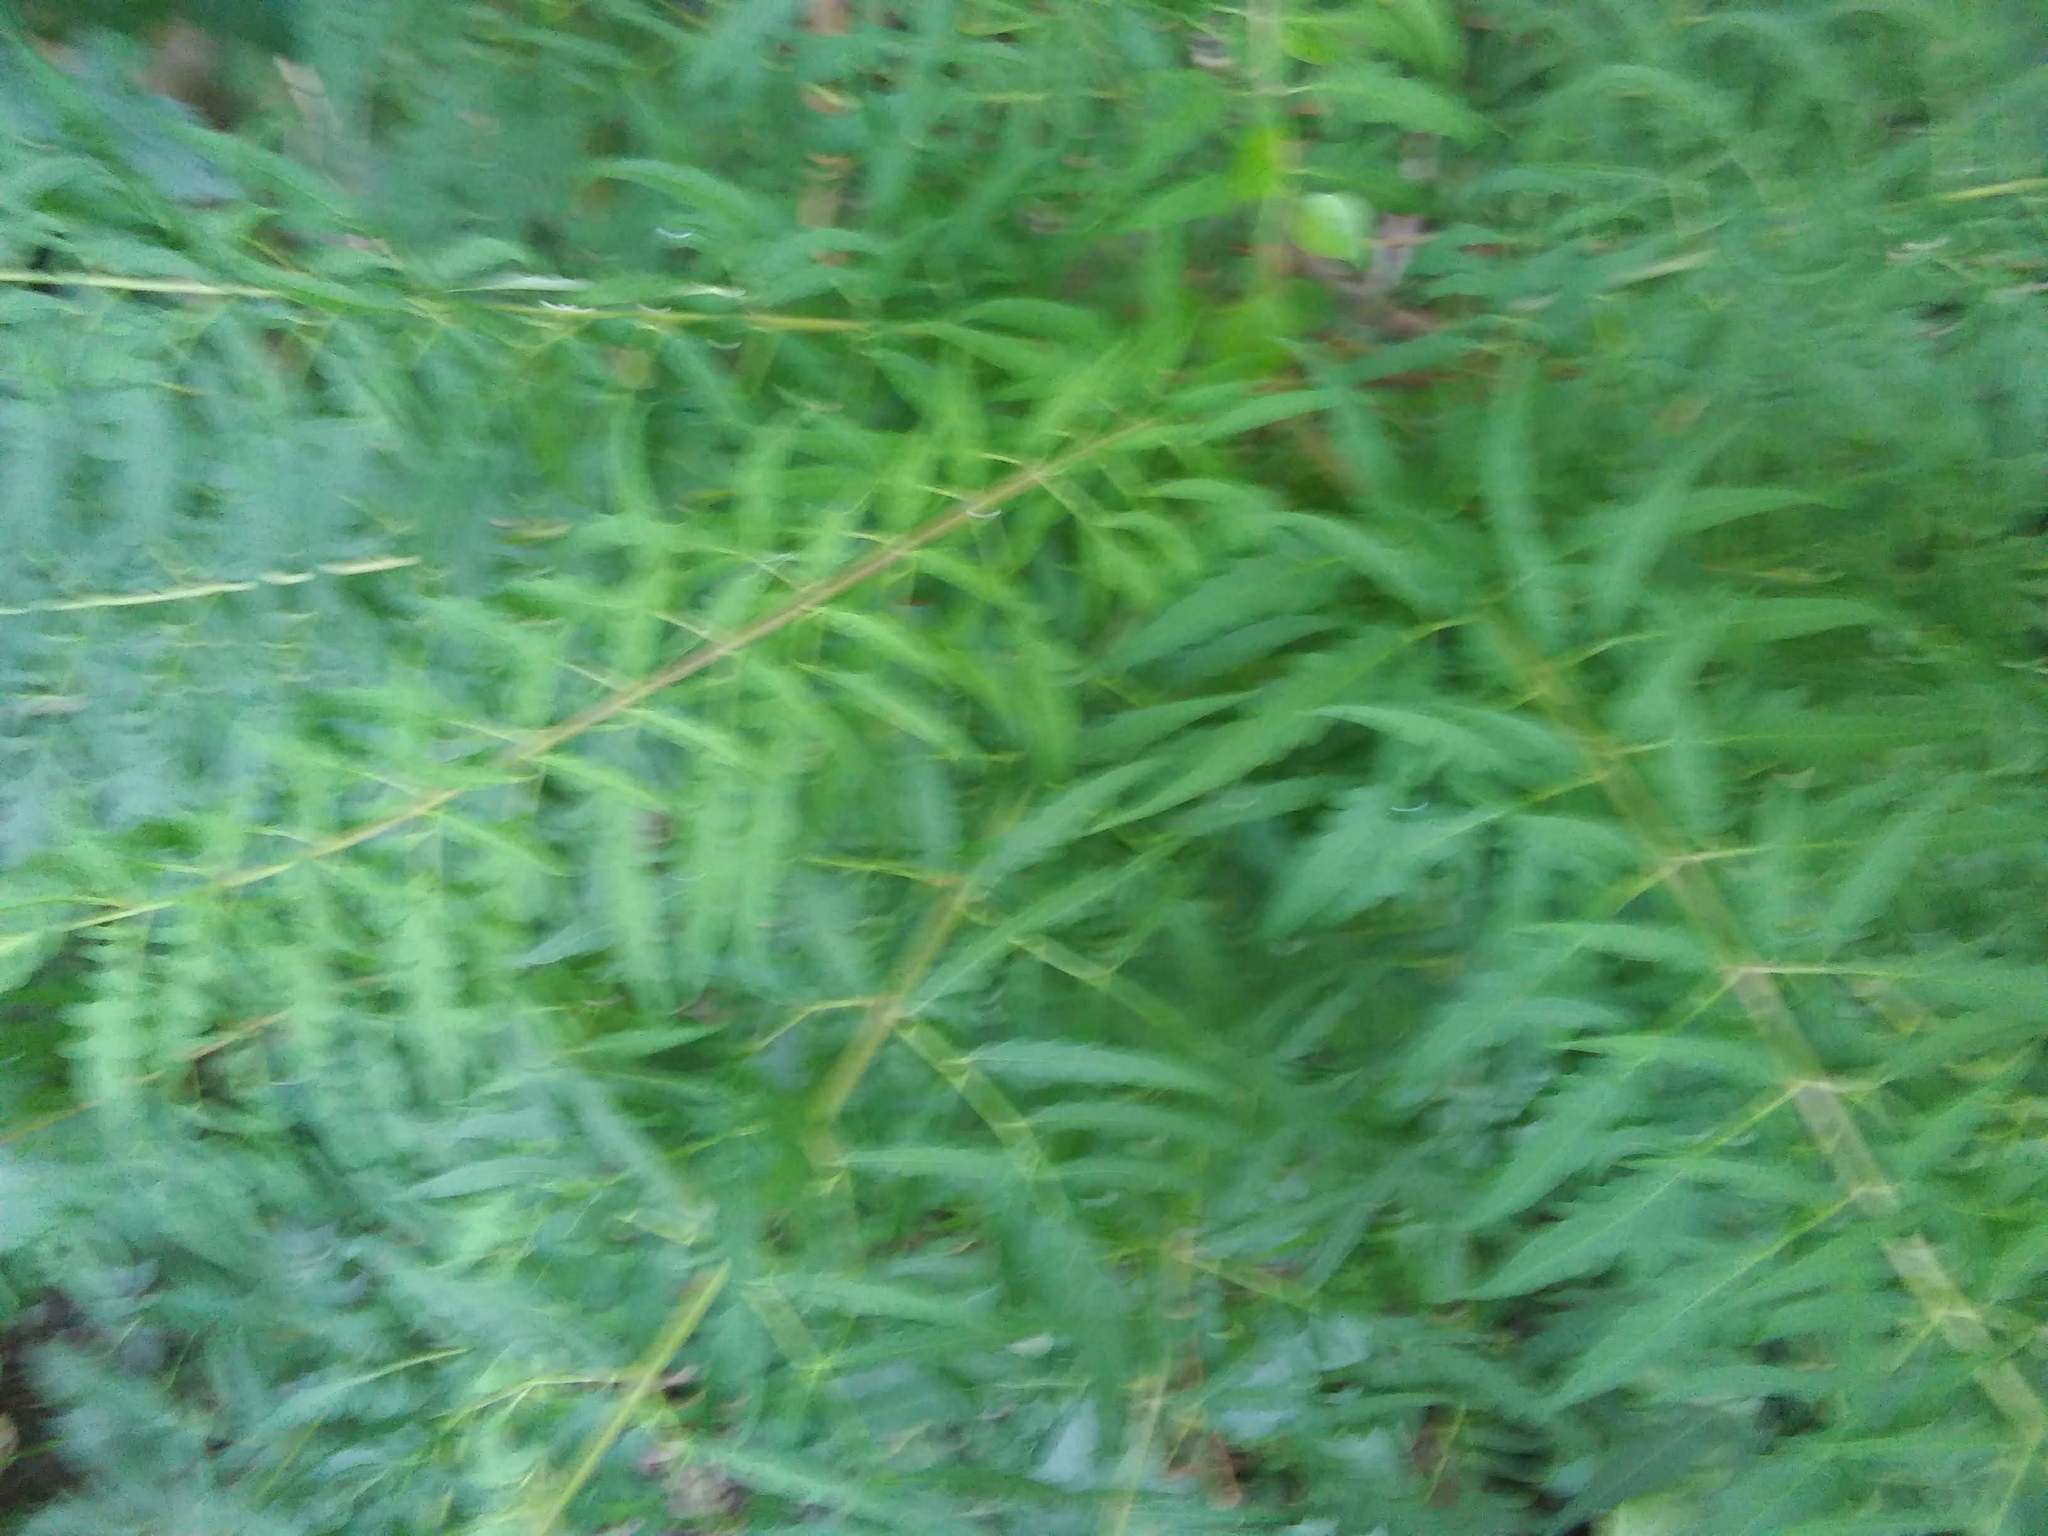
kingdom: Plantae
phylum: Tracheophyta
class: Magnoliopsida
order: Sapindales
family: Anacardiaceae
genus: Rhus
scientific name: Rhus
